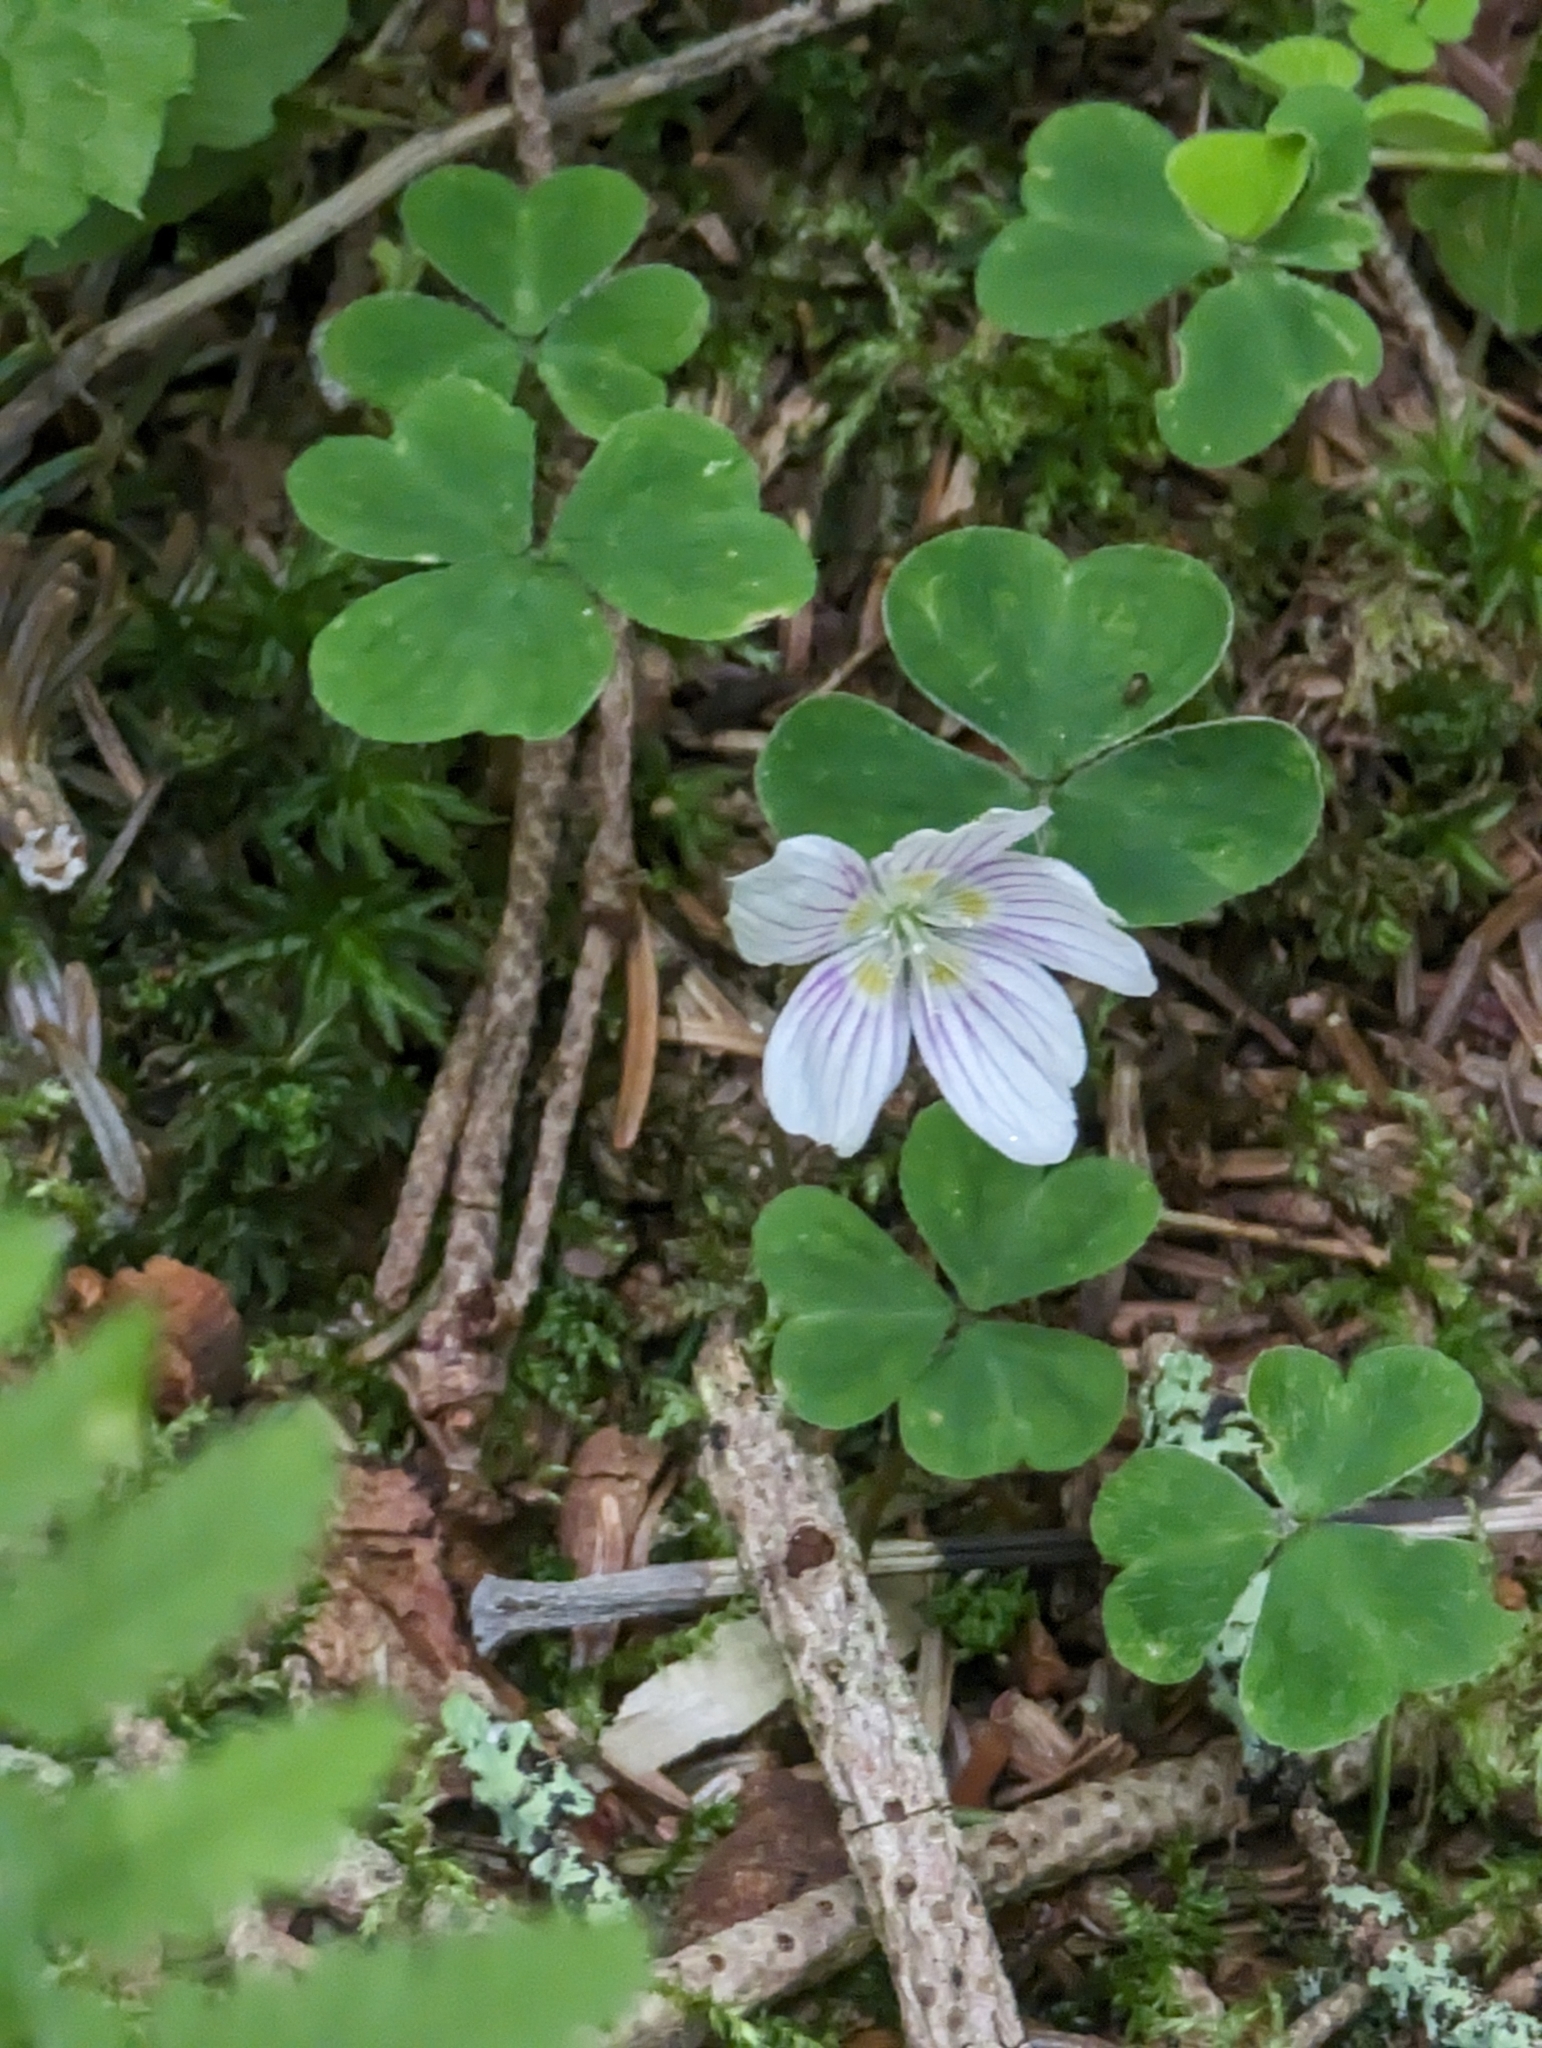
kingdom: Plantae
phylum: Tracheophyta
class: Magnoliopsida
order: Oxalidales
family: Oxalidaceae
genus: Oxalis
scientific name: Oxalis montana
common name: American wood-sorrel
